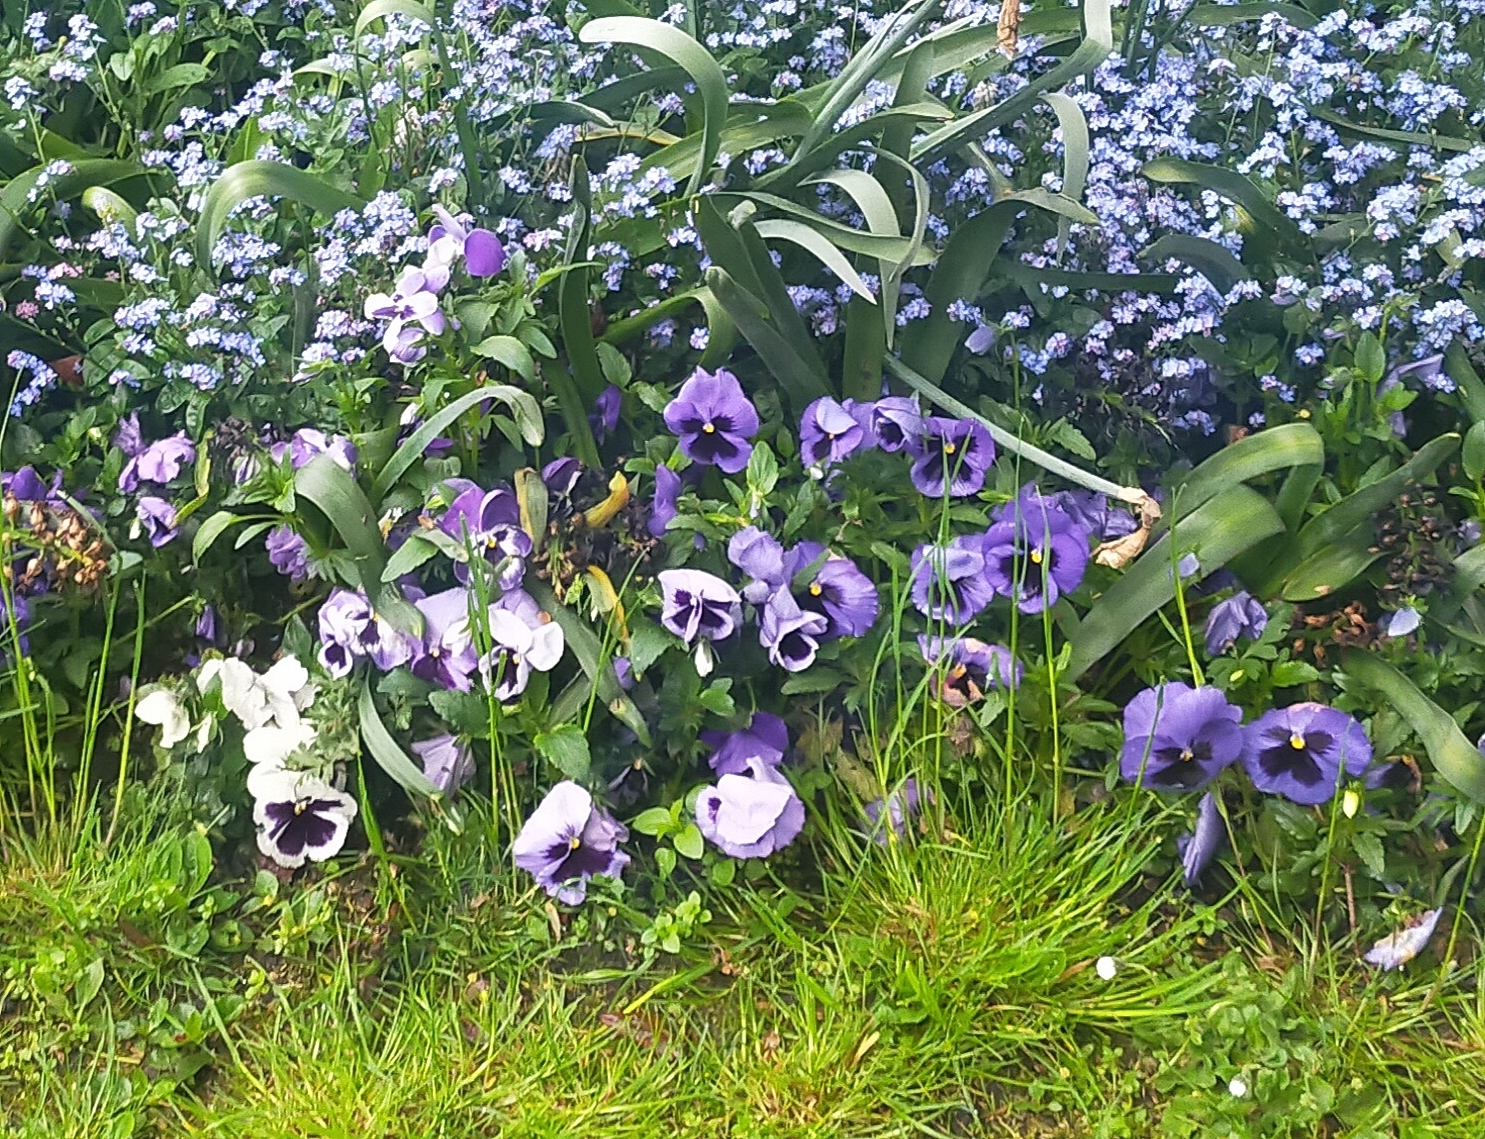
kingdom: Animalia
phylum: Mollusca
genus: Melanium
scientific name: Melanium
